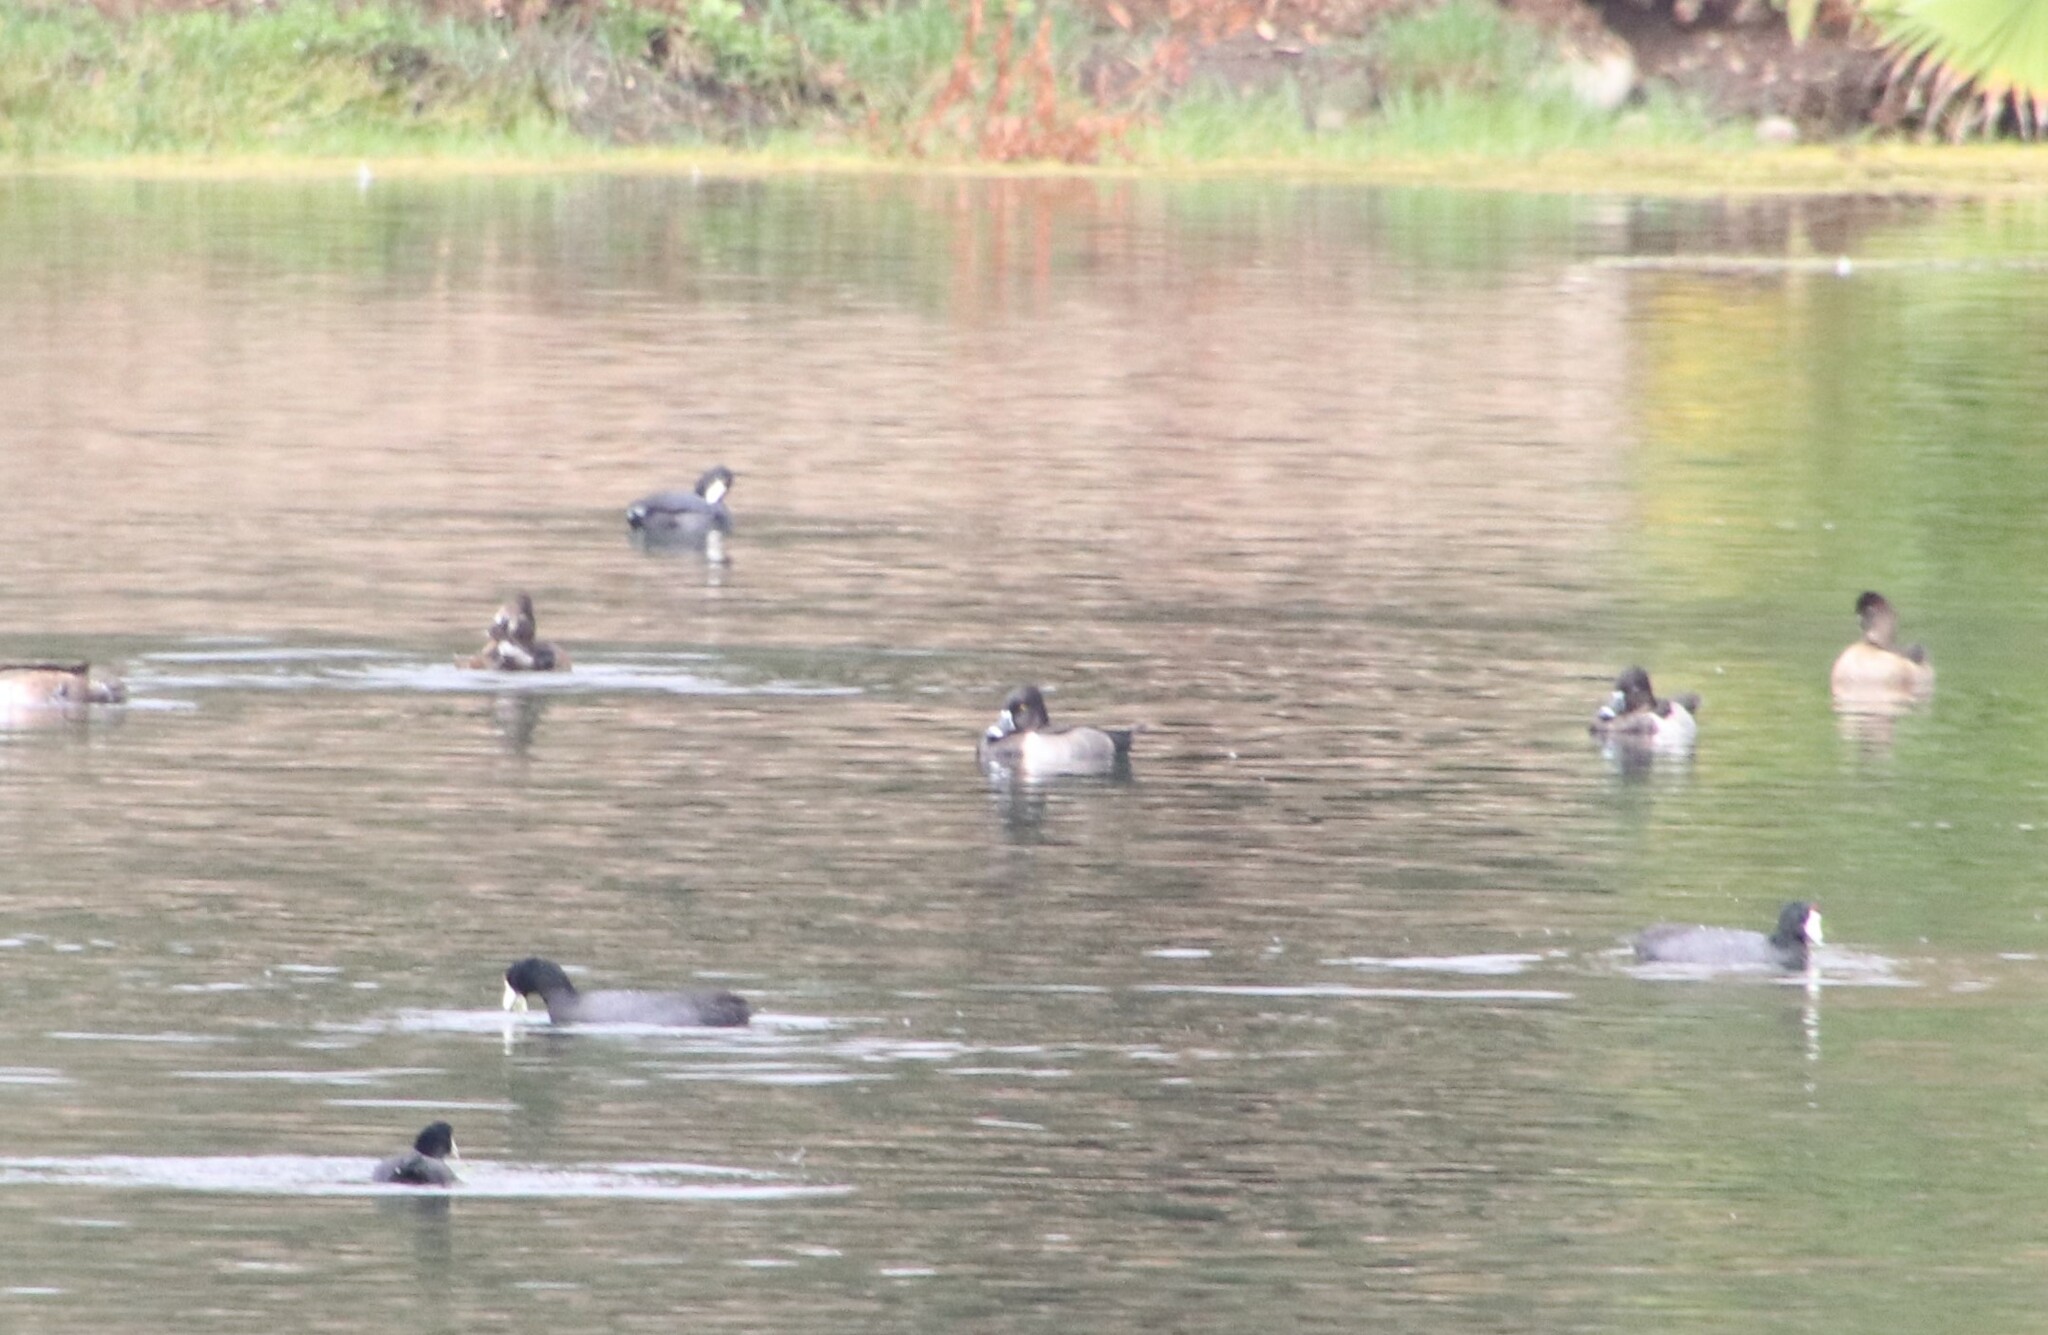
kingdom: Animalia
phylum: Chordata
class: Aves
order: Anseriformes
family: Anatidae
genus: Aythya
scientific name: Aythya collaris
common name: Ring-necked duck
